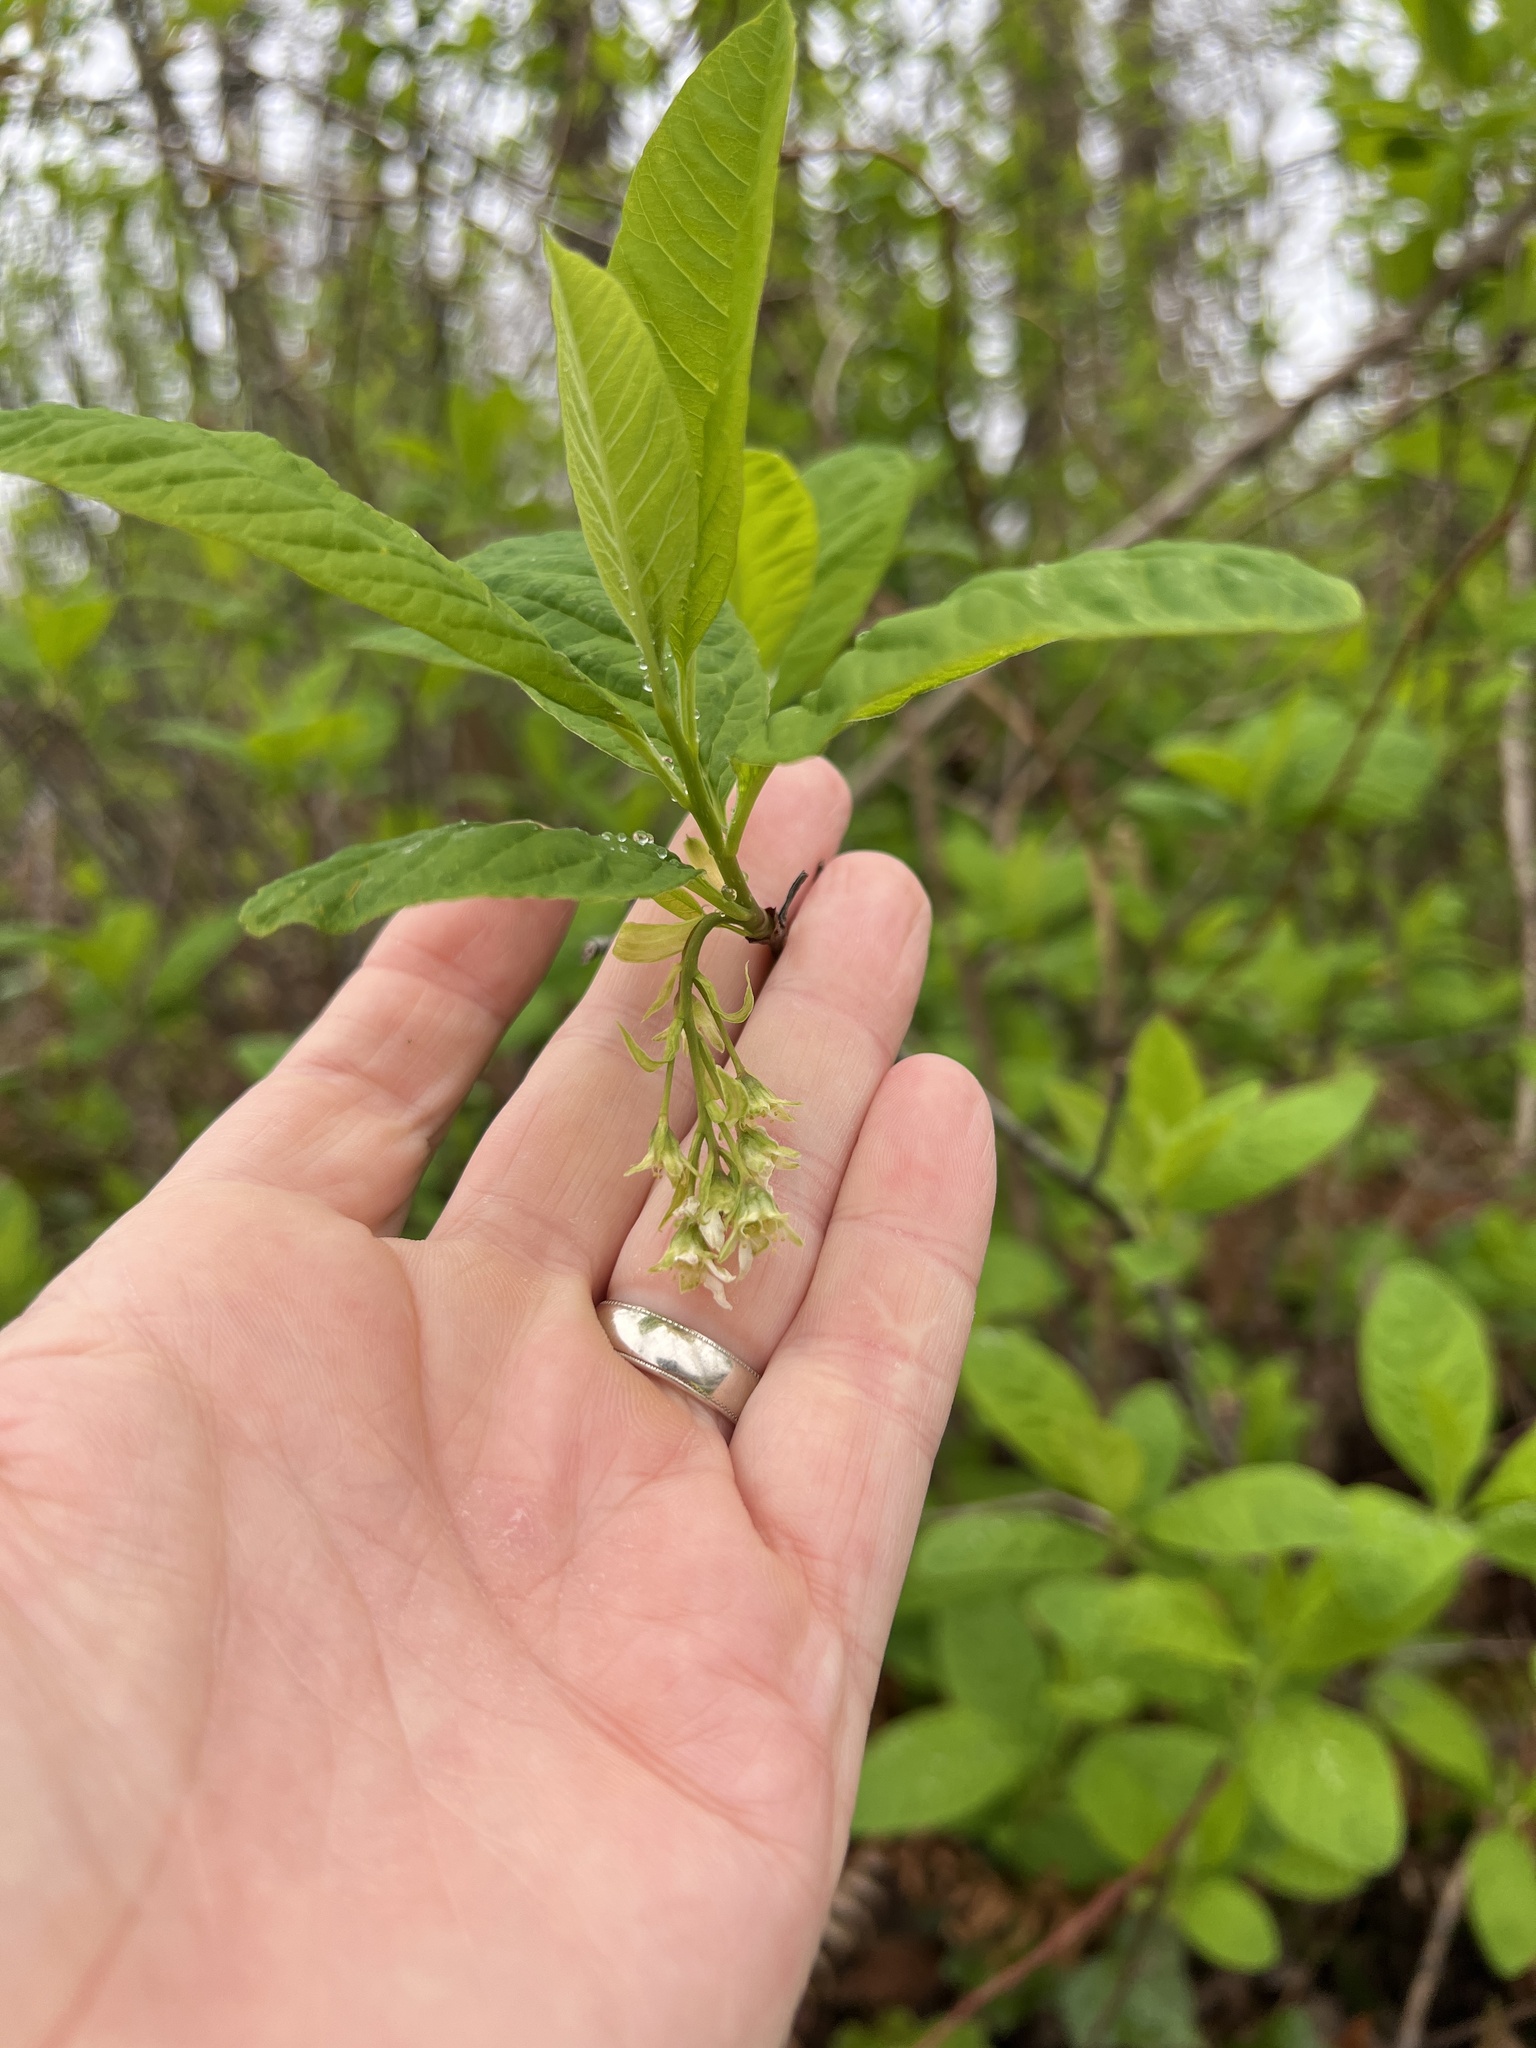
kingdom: Plantae
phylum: Tracheophyta
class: Magnoliopsida
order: Rosales
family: Rosaceae
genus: Oemleria
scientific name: Oemleria cerasiformis
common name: Osoberry
